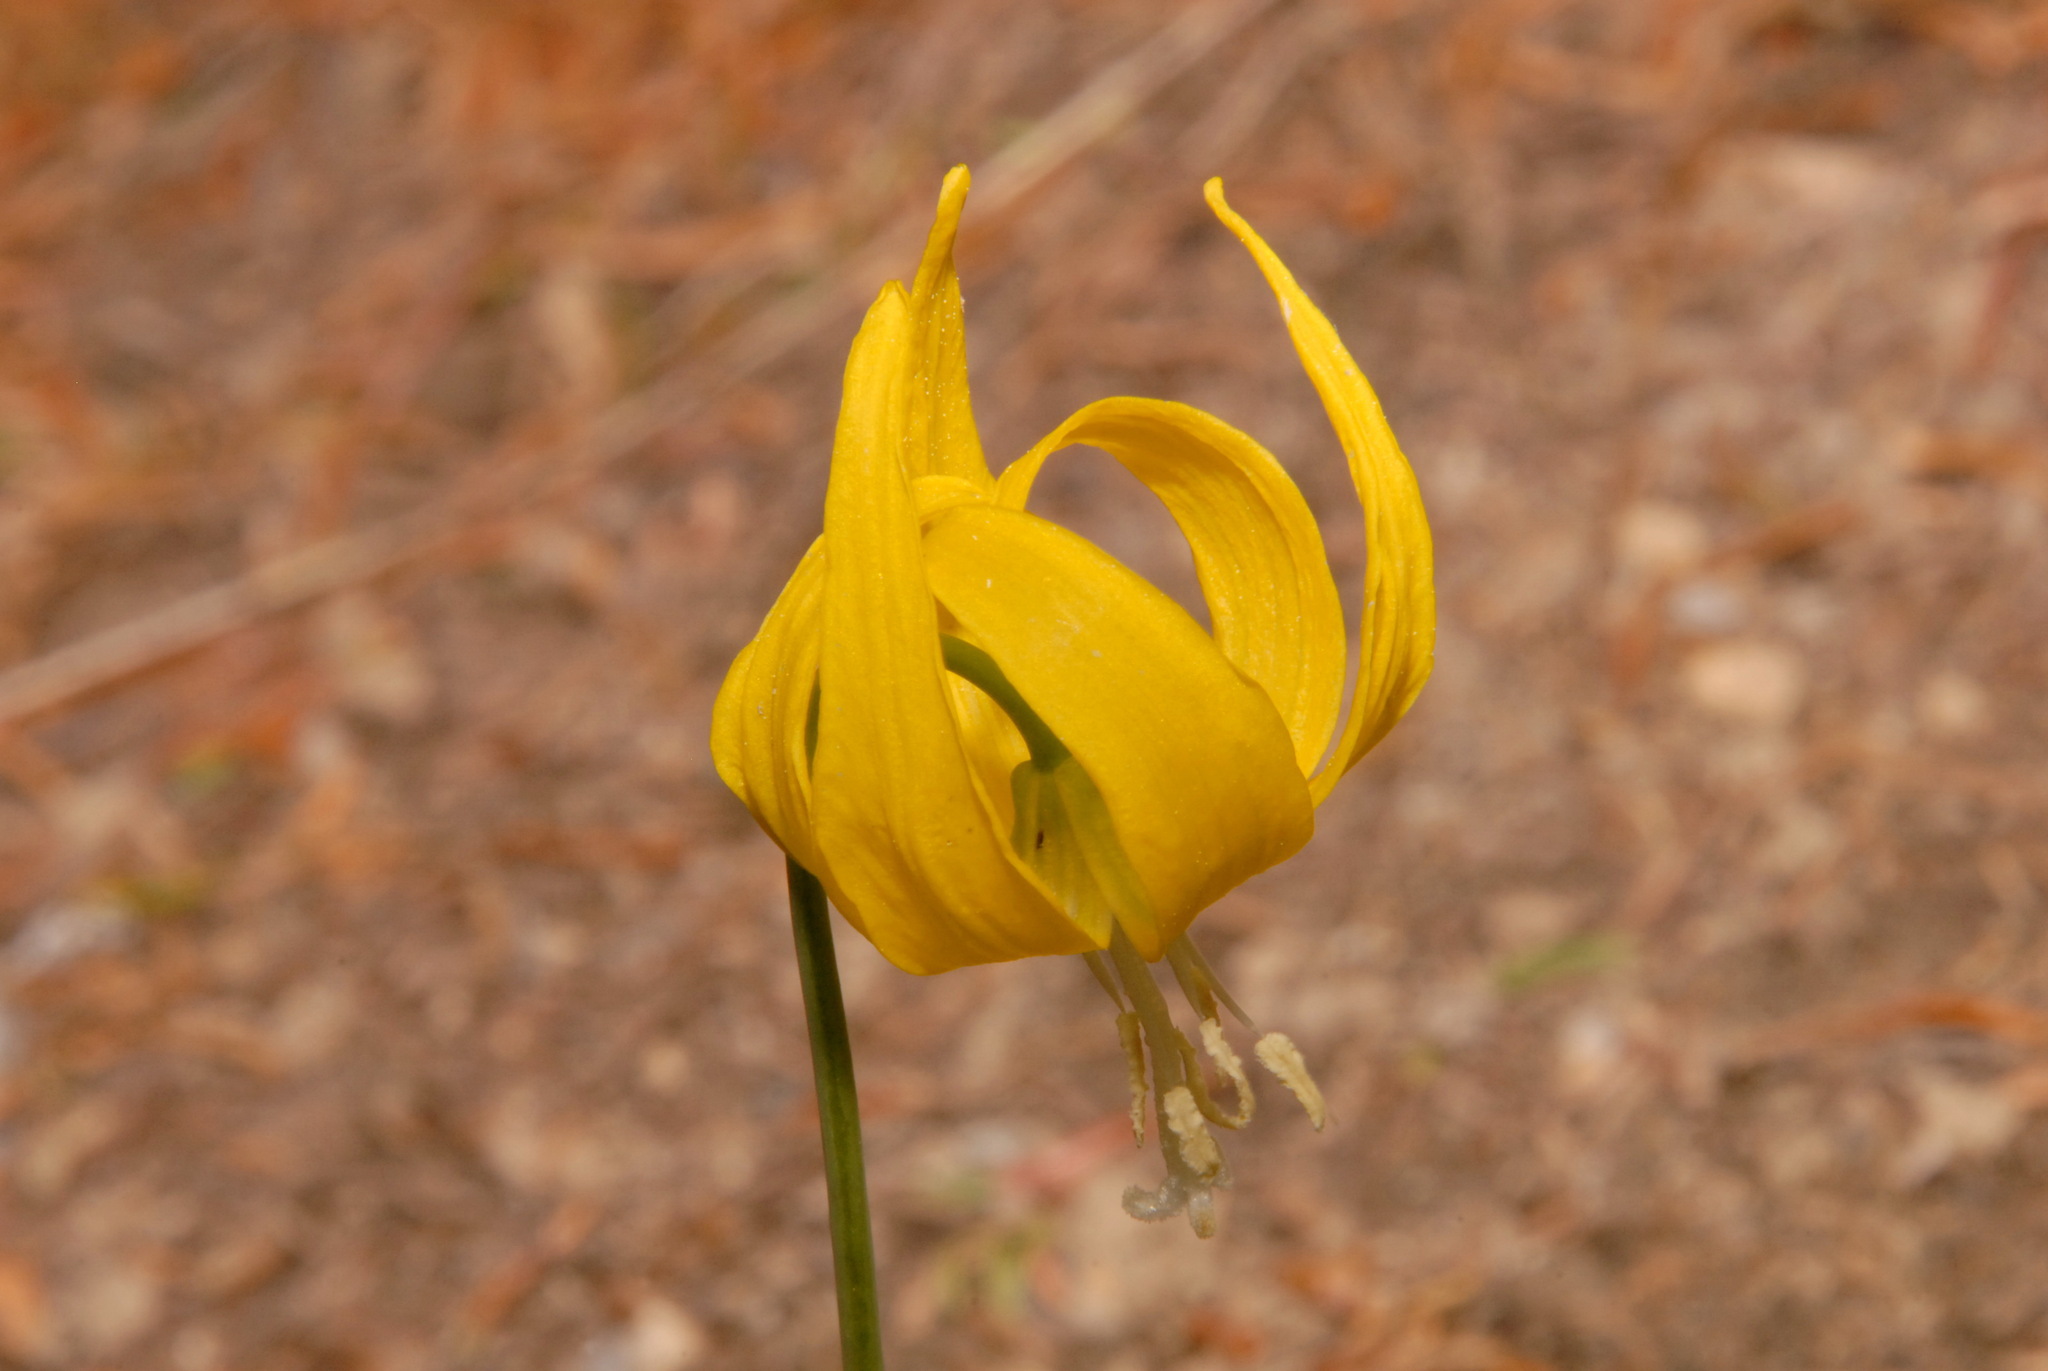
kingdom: Plantae
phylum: Tracheophyta
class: Liliopsida
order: Liliales
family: Liliaceae
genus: Erythronium
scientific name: Erythronium grandiflorum
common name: Avalanche-lily
